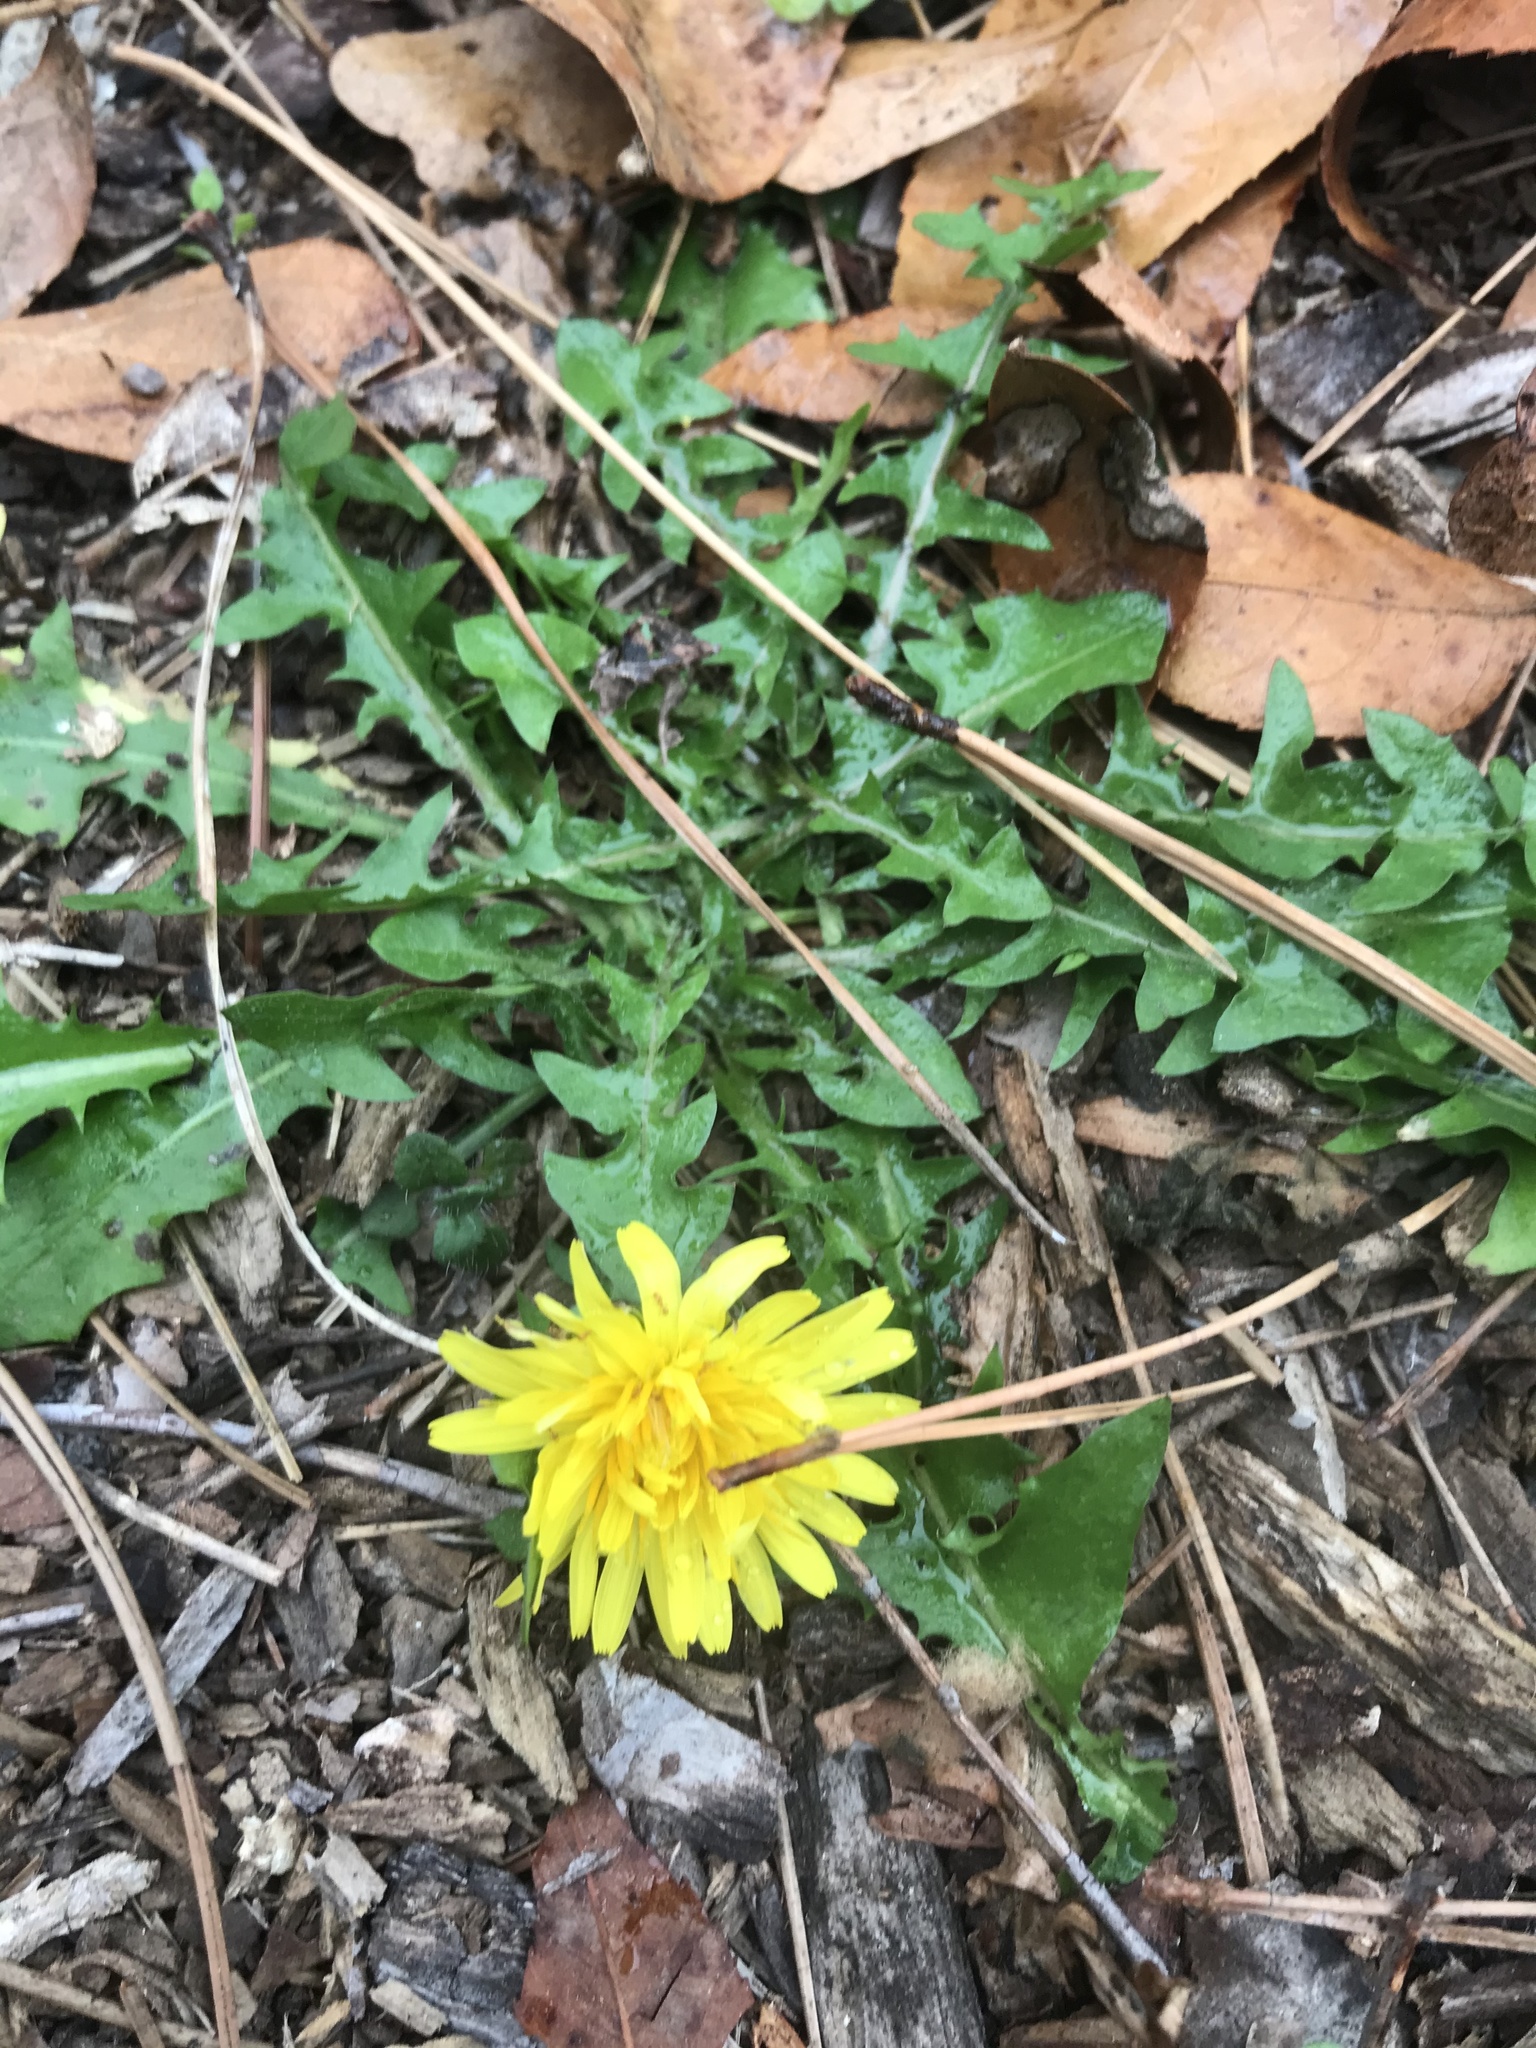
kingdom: Plantae
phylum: Tracheophyta
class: Magnoliopsida
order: Asterales
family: Asteraceae
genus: Taraxacum
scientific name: Taraxacum officinale
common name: Common dandelion
